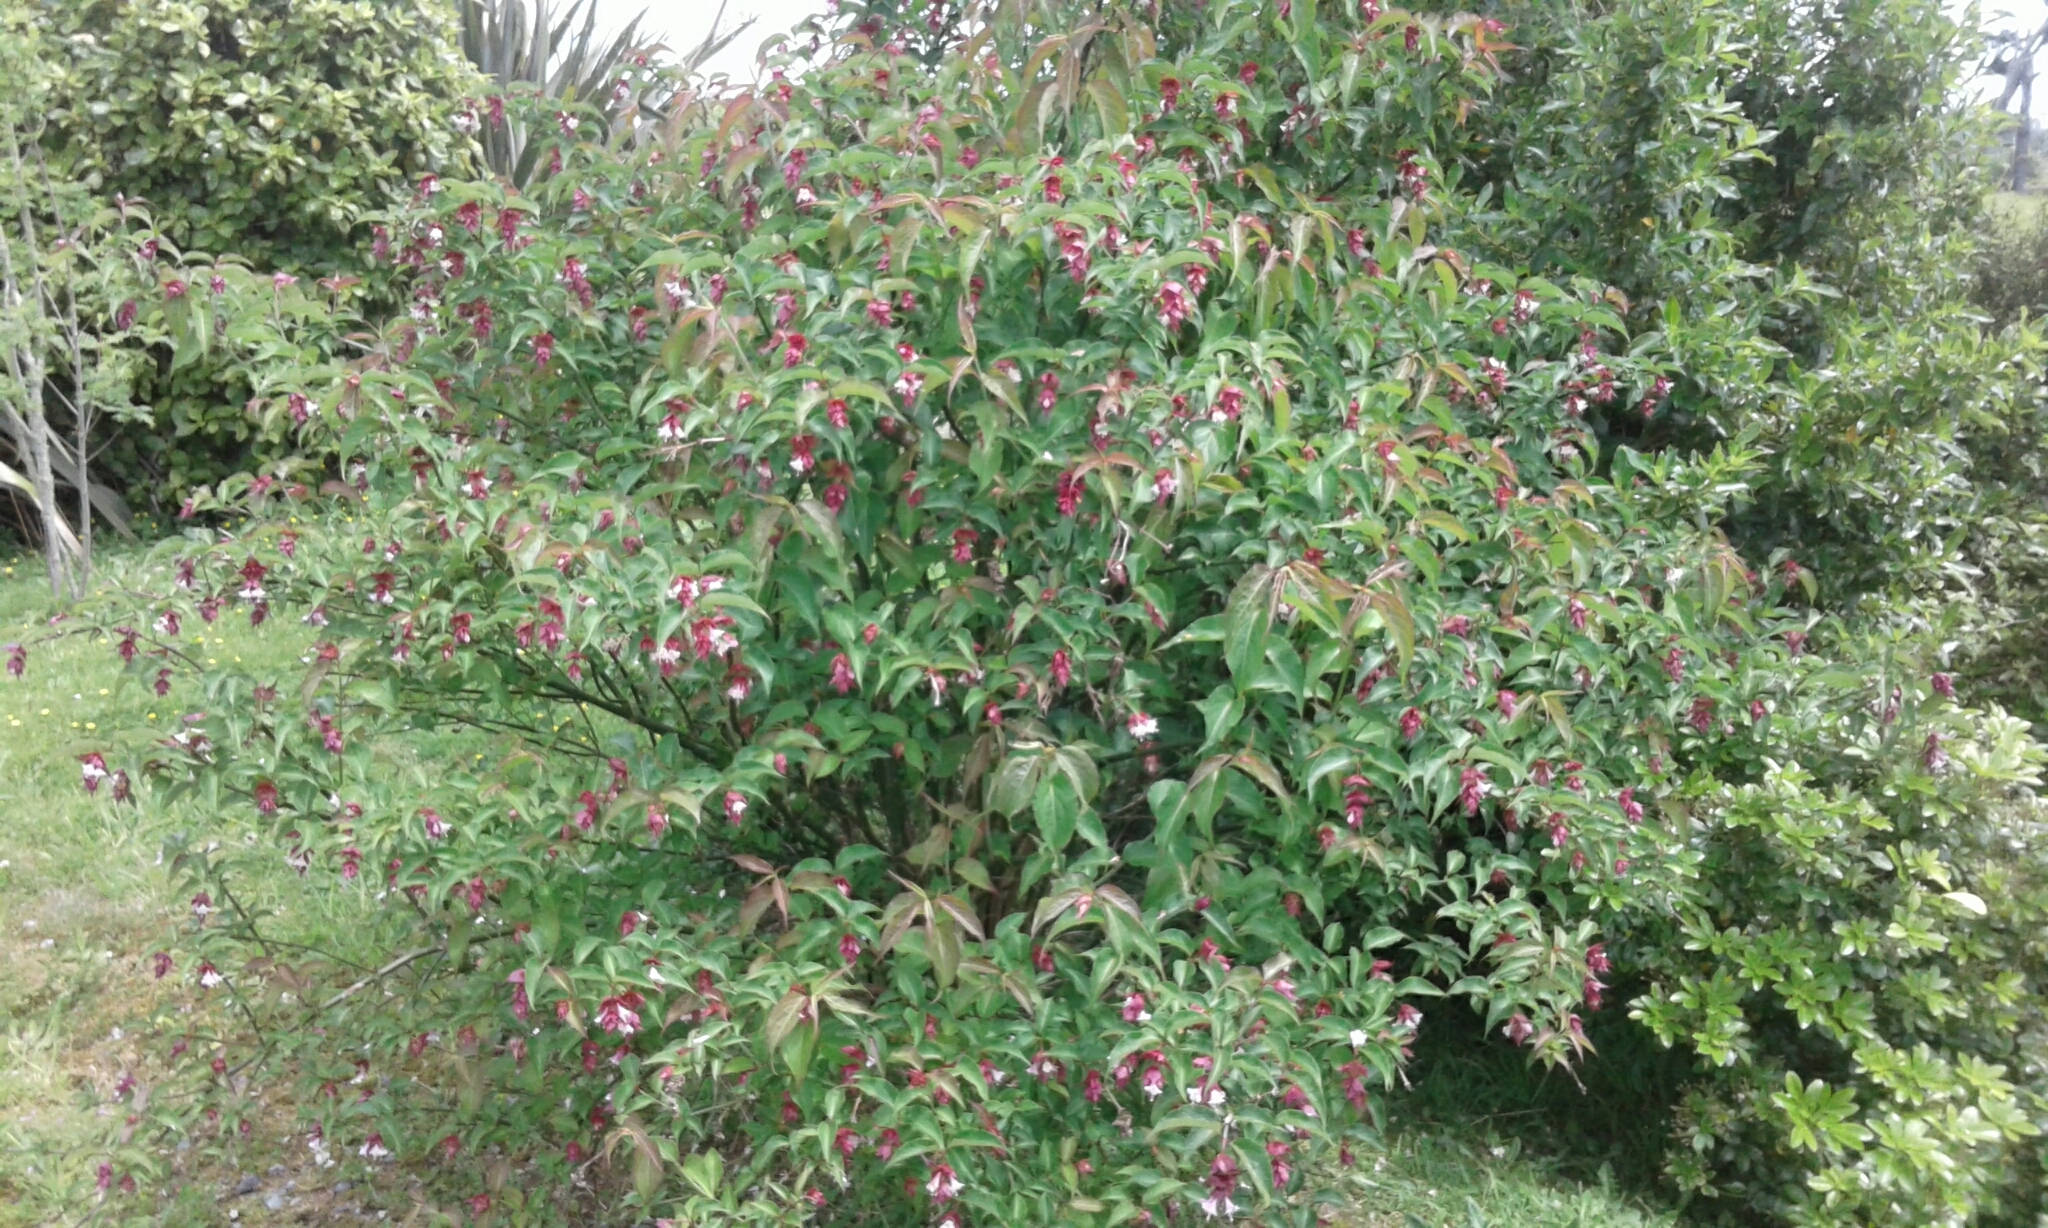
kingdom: Plantae
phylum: Tracheophyta
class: Magnoliopsida
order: Dipsacales
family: Caprifoliaceae
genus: Leycesteria
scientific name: Leycesteria formosa
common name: Himalayan honeysuckle
